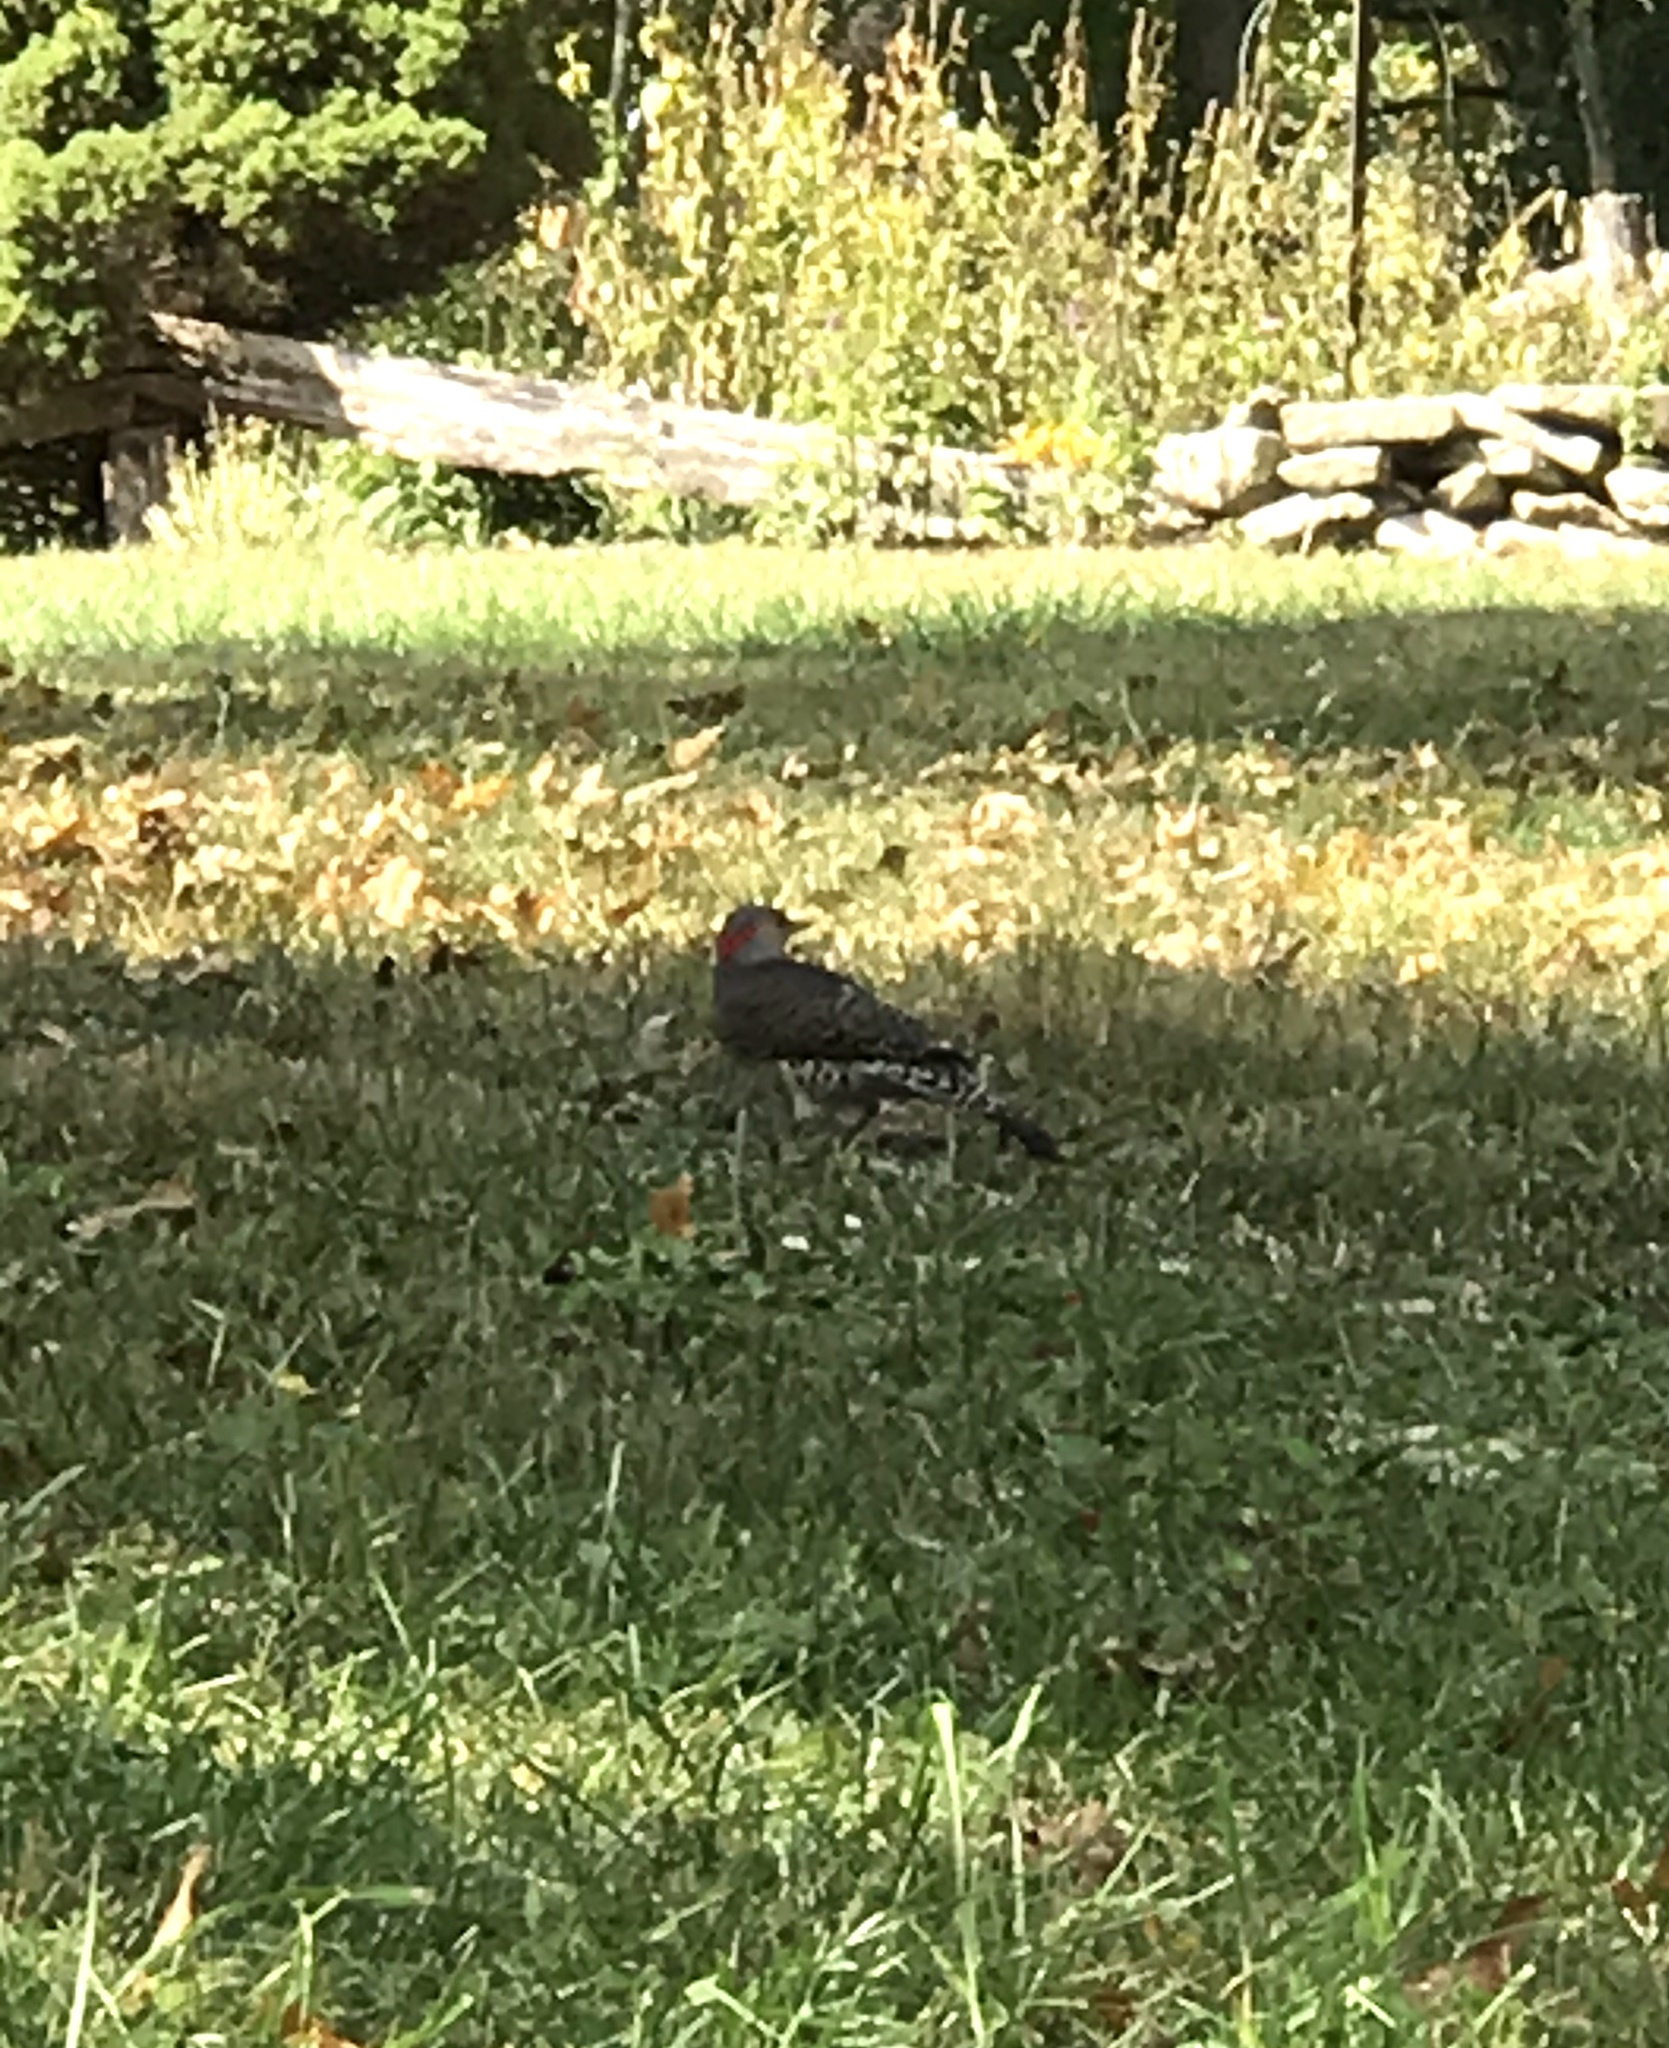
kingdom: Animalia
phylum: Chordata
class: Aves
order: Piciformes
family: Picidae
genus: Colaptes
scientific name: Colaptes auratus
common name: Northern flicker
